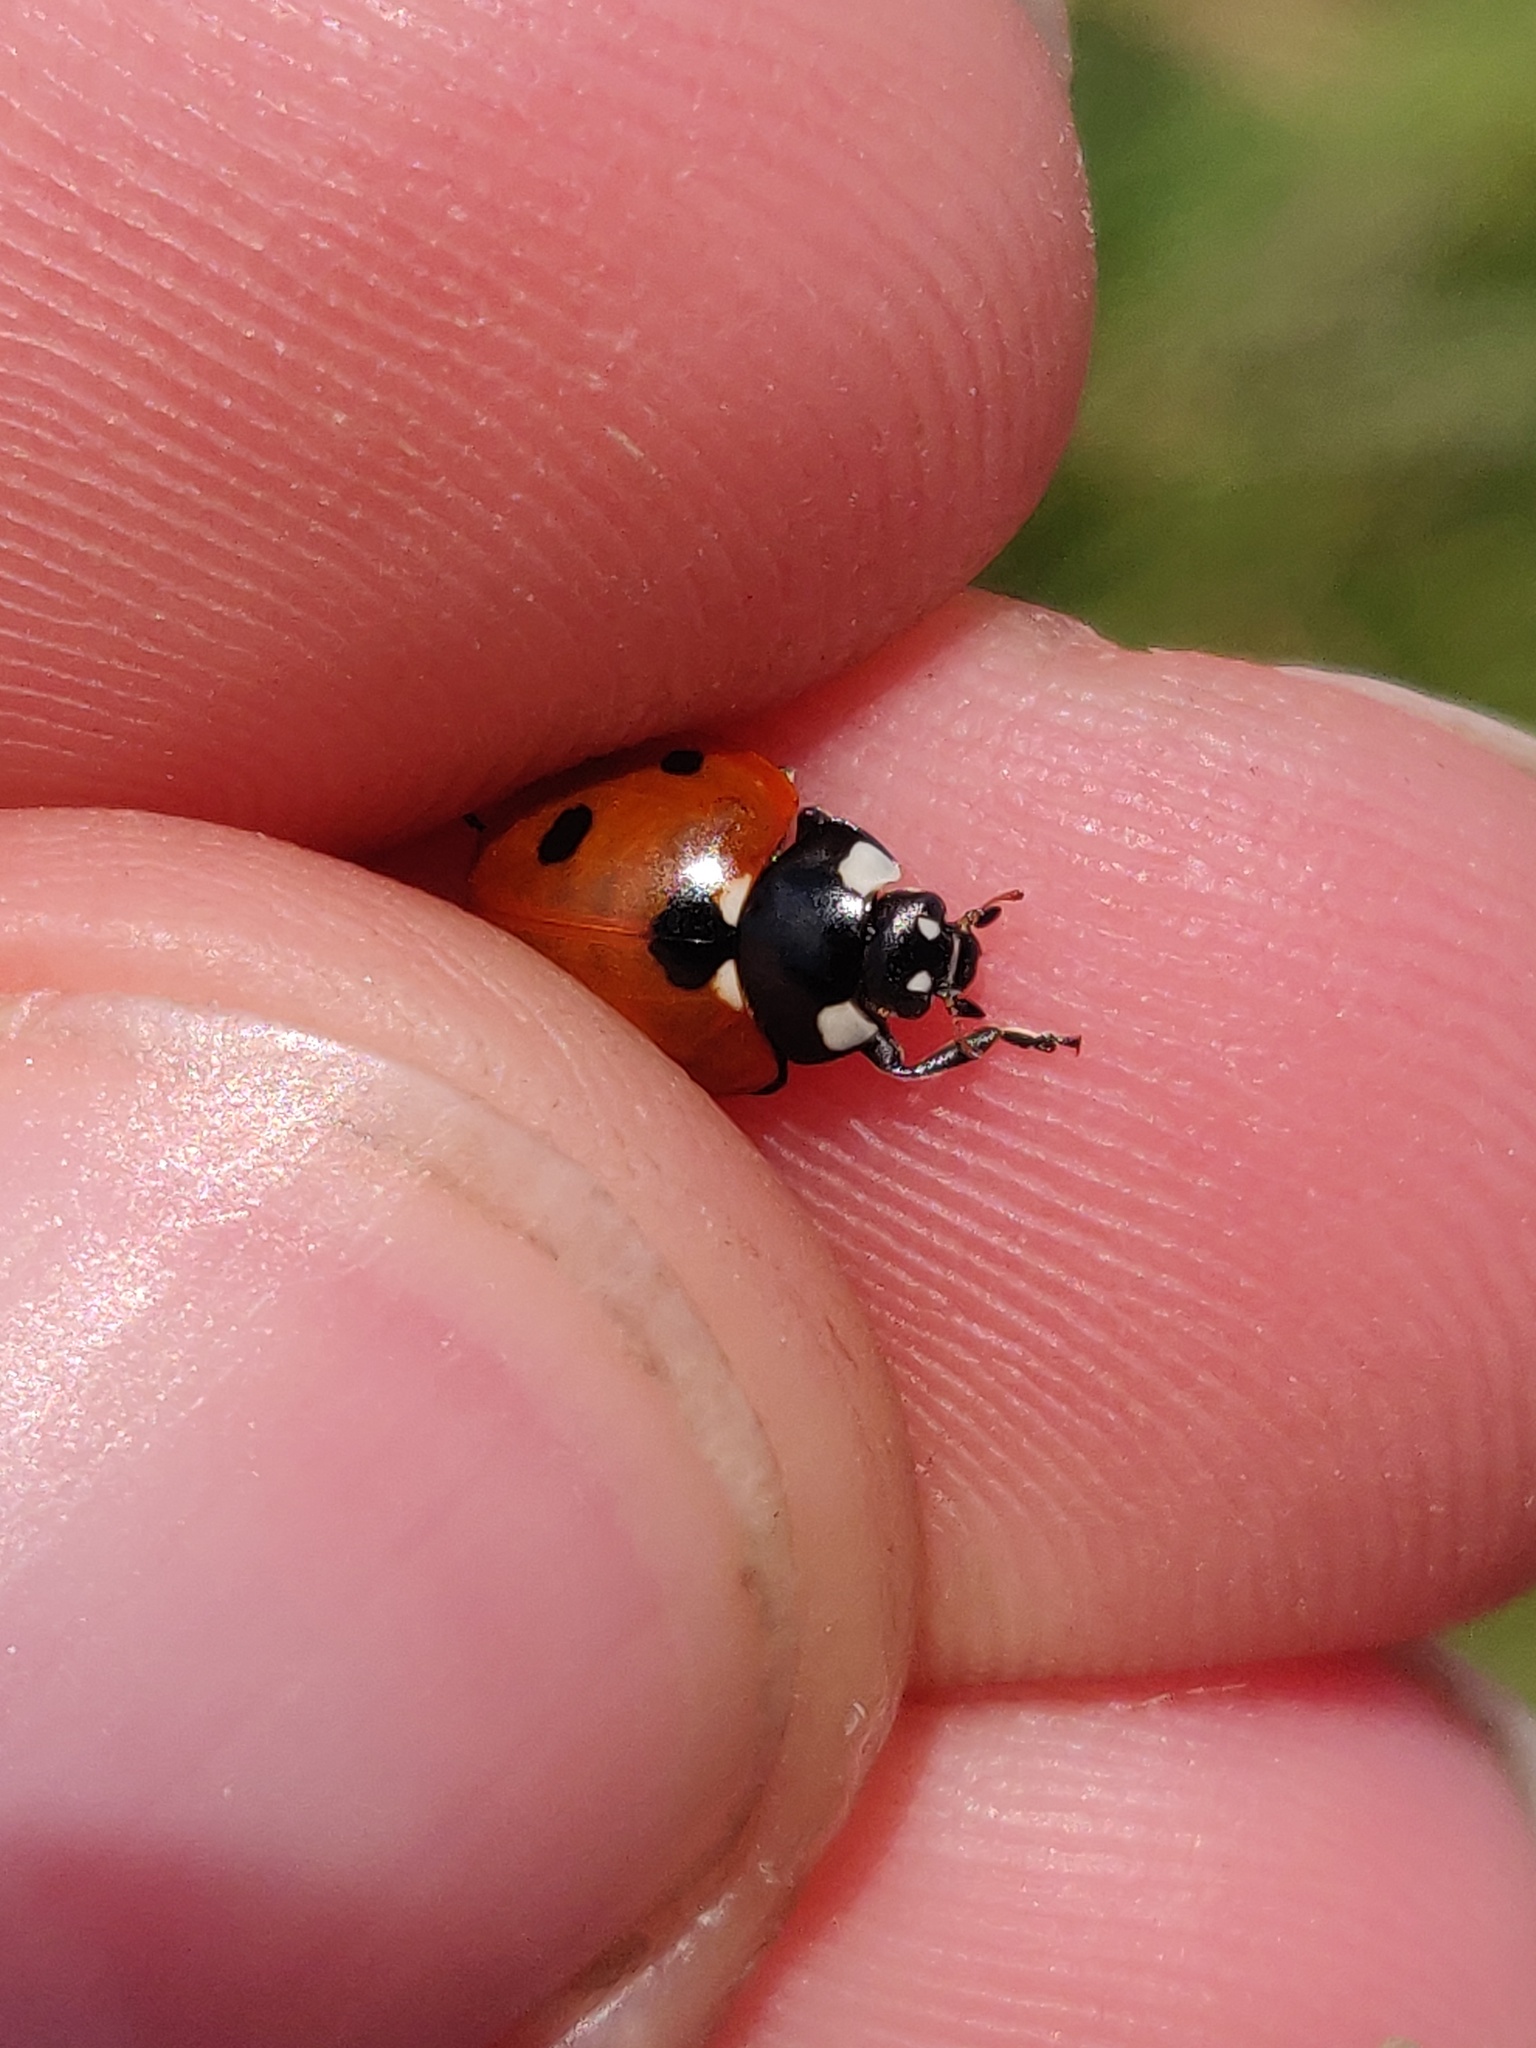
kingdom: Animalia
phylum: Arthropoda
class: Insecta
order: Coleoptera
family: Coccinellidae
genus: Coccinella
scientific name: Coccinella septempunctata
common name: Sevenspotted lady beetle
